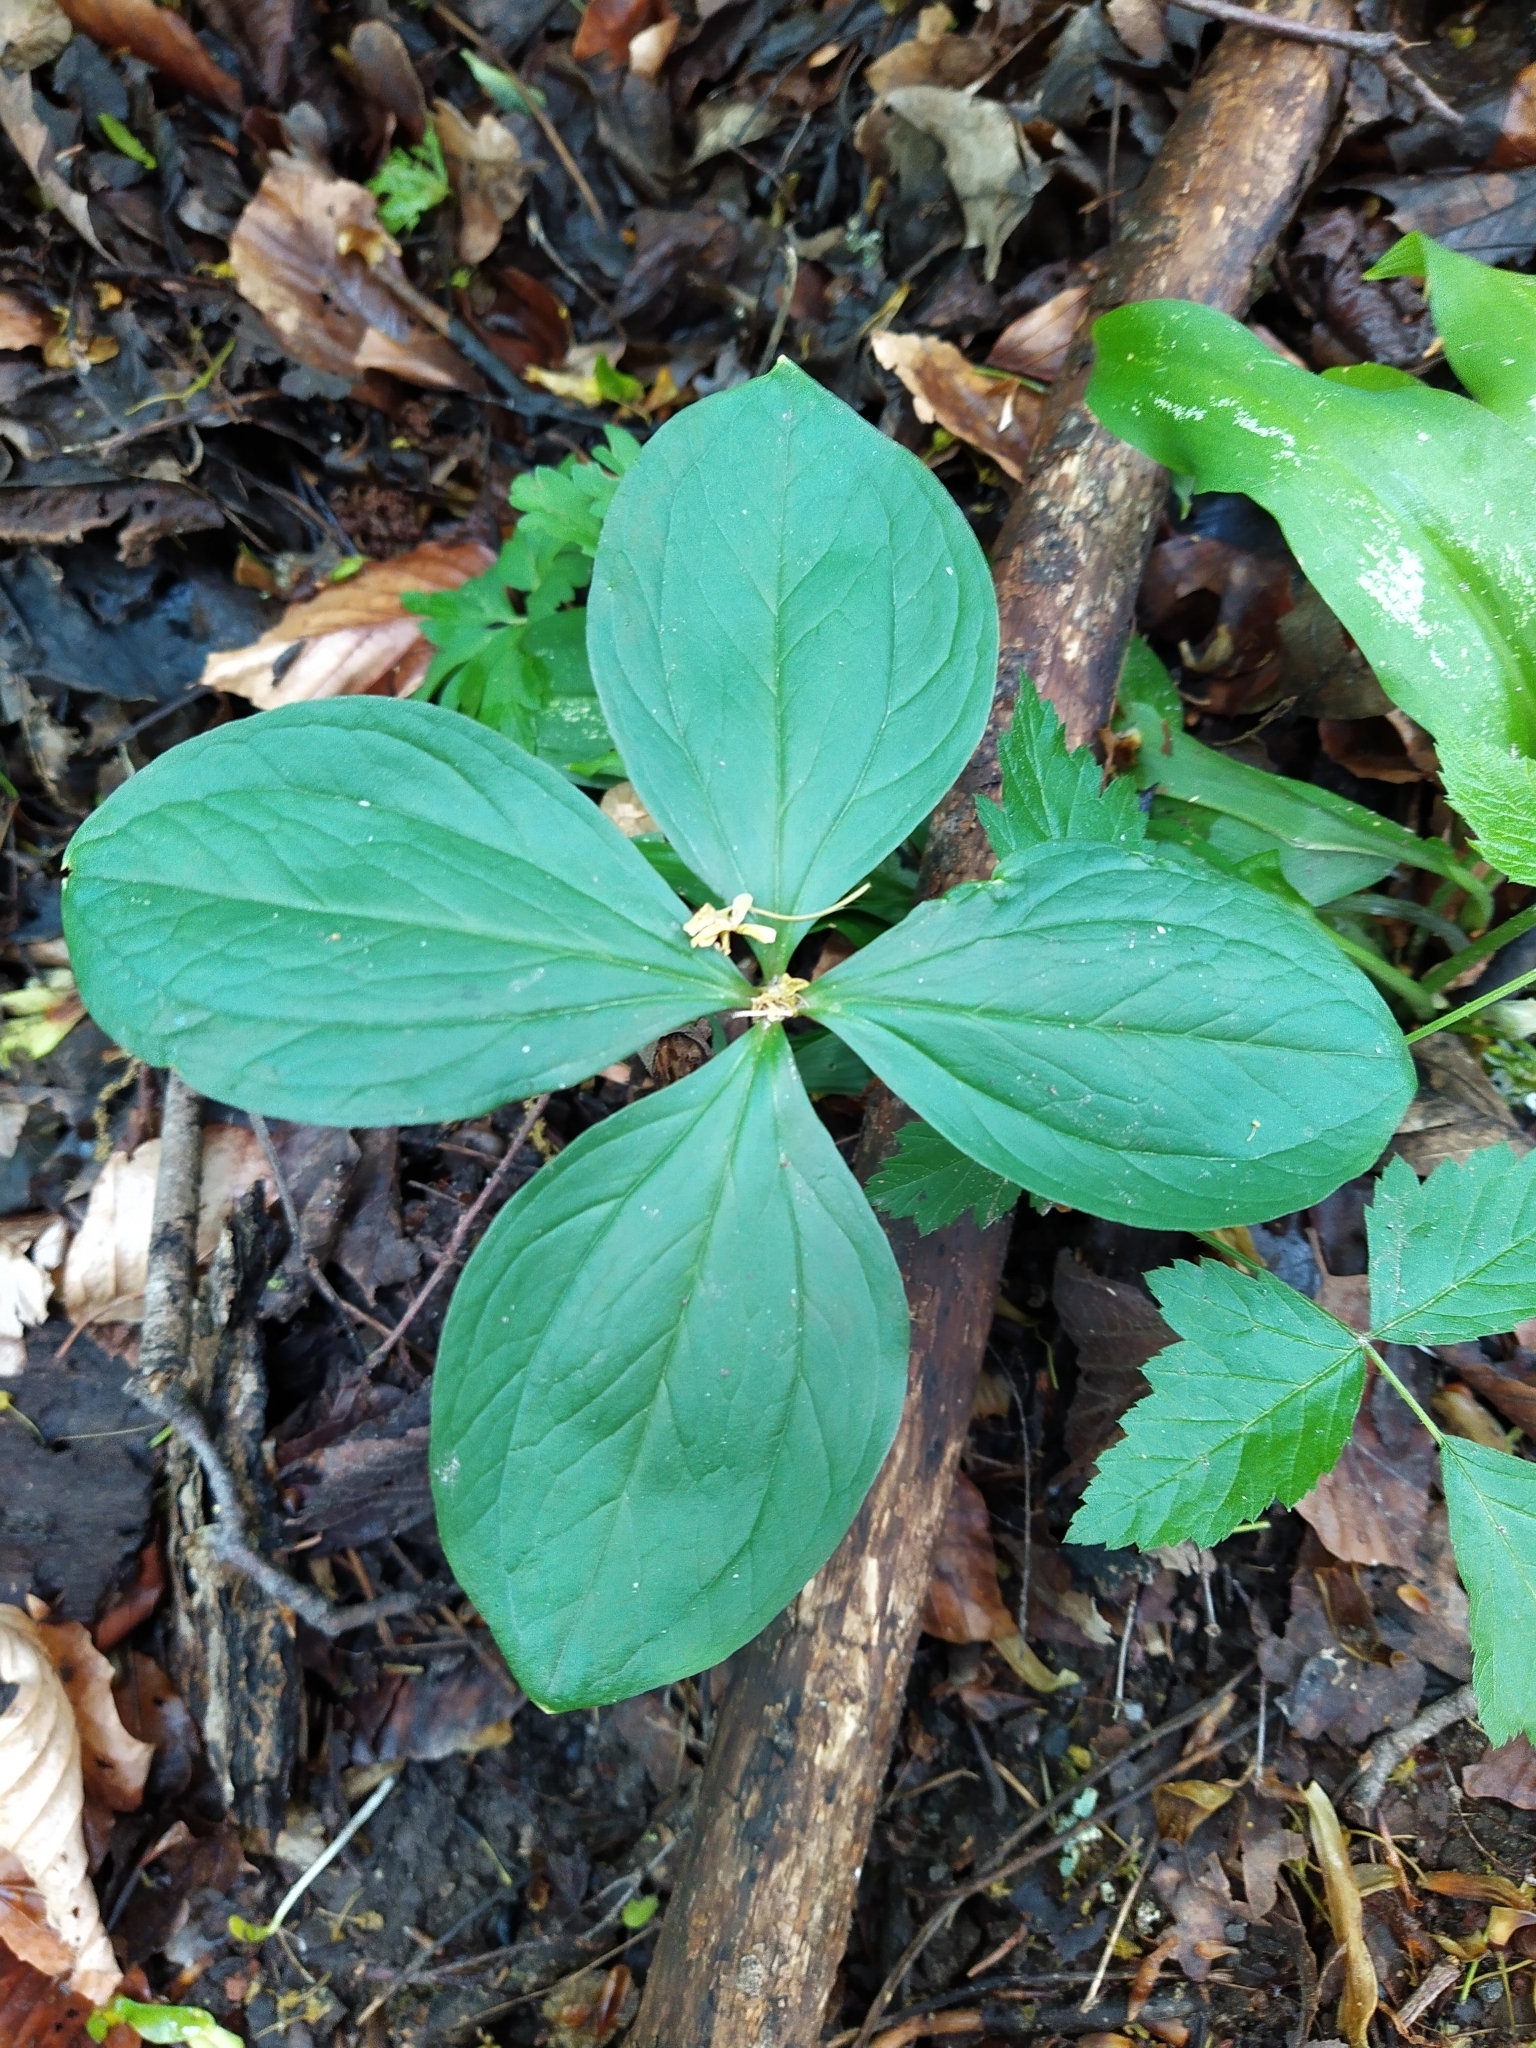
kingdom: Plantae
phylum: Tracheophyta
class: Liliopsida
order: Liliales
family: Melanthiaceae
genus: Paris
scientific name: Paris quadrifolia
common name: Herb-paris
